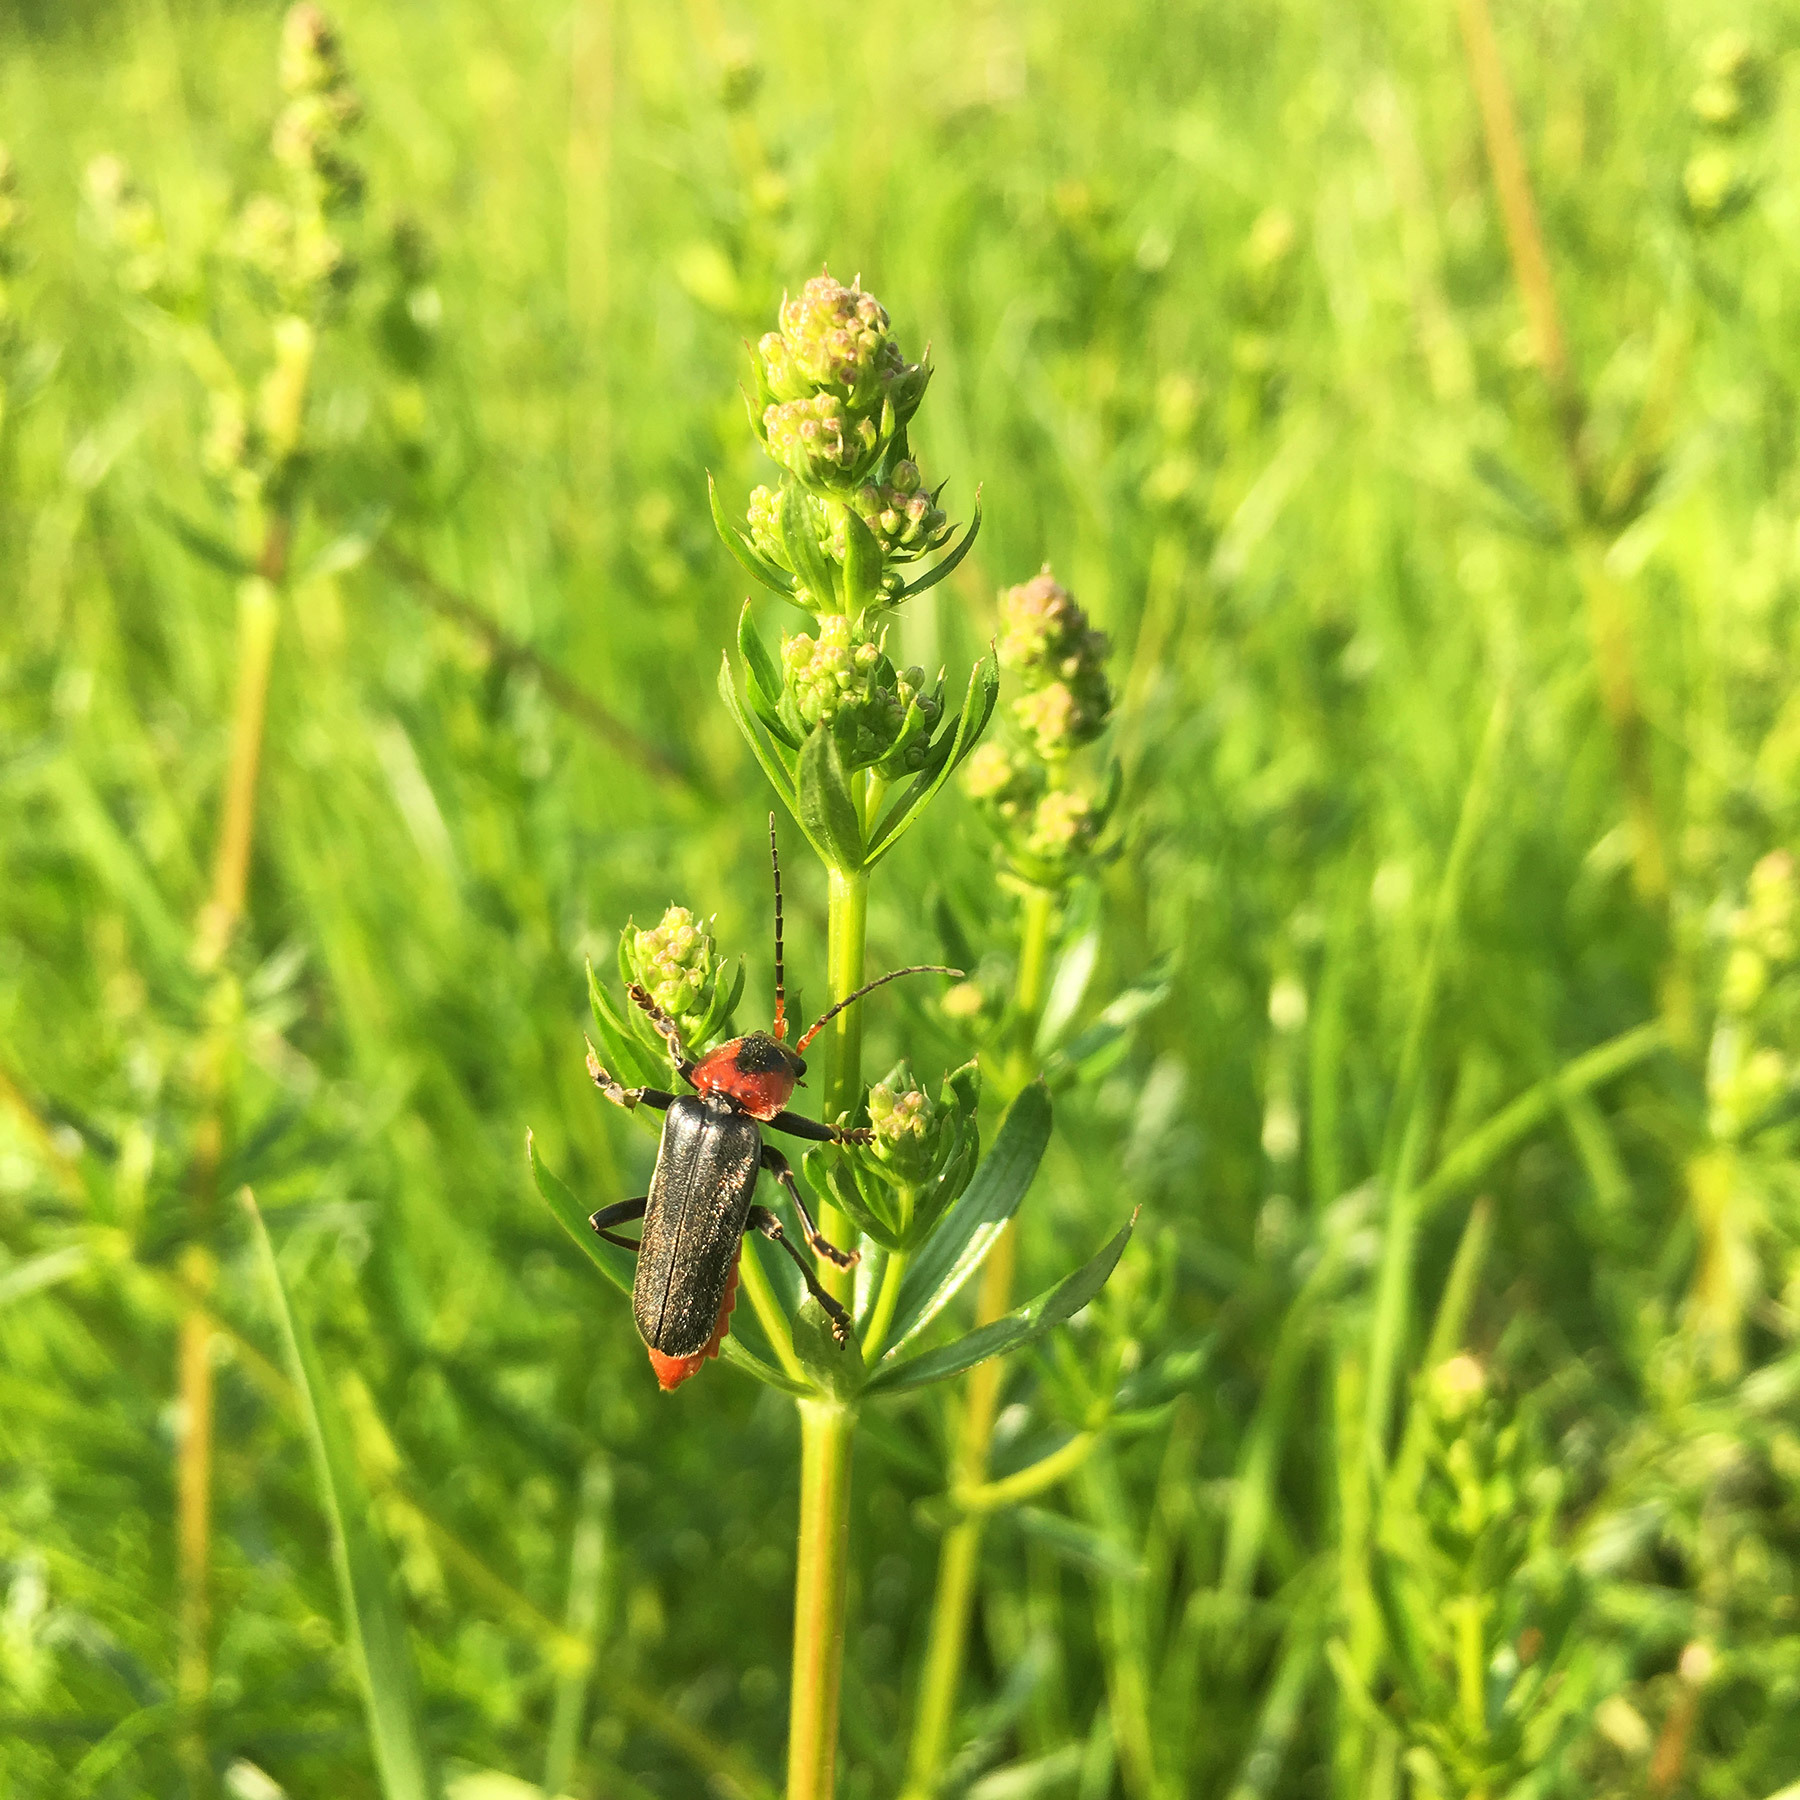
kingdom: Animalia
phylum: Arthropoda
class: Insecta
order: Coleoptera
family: Cantharidae
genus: Cantharis
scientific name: Cantharis fusca
